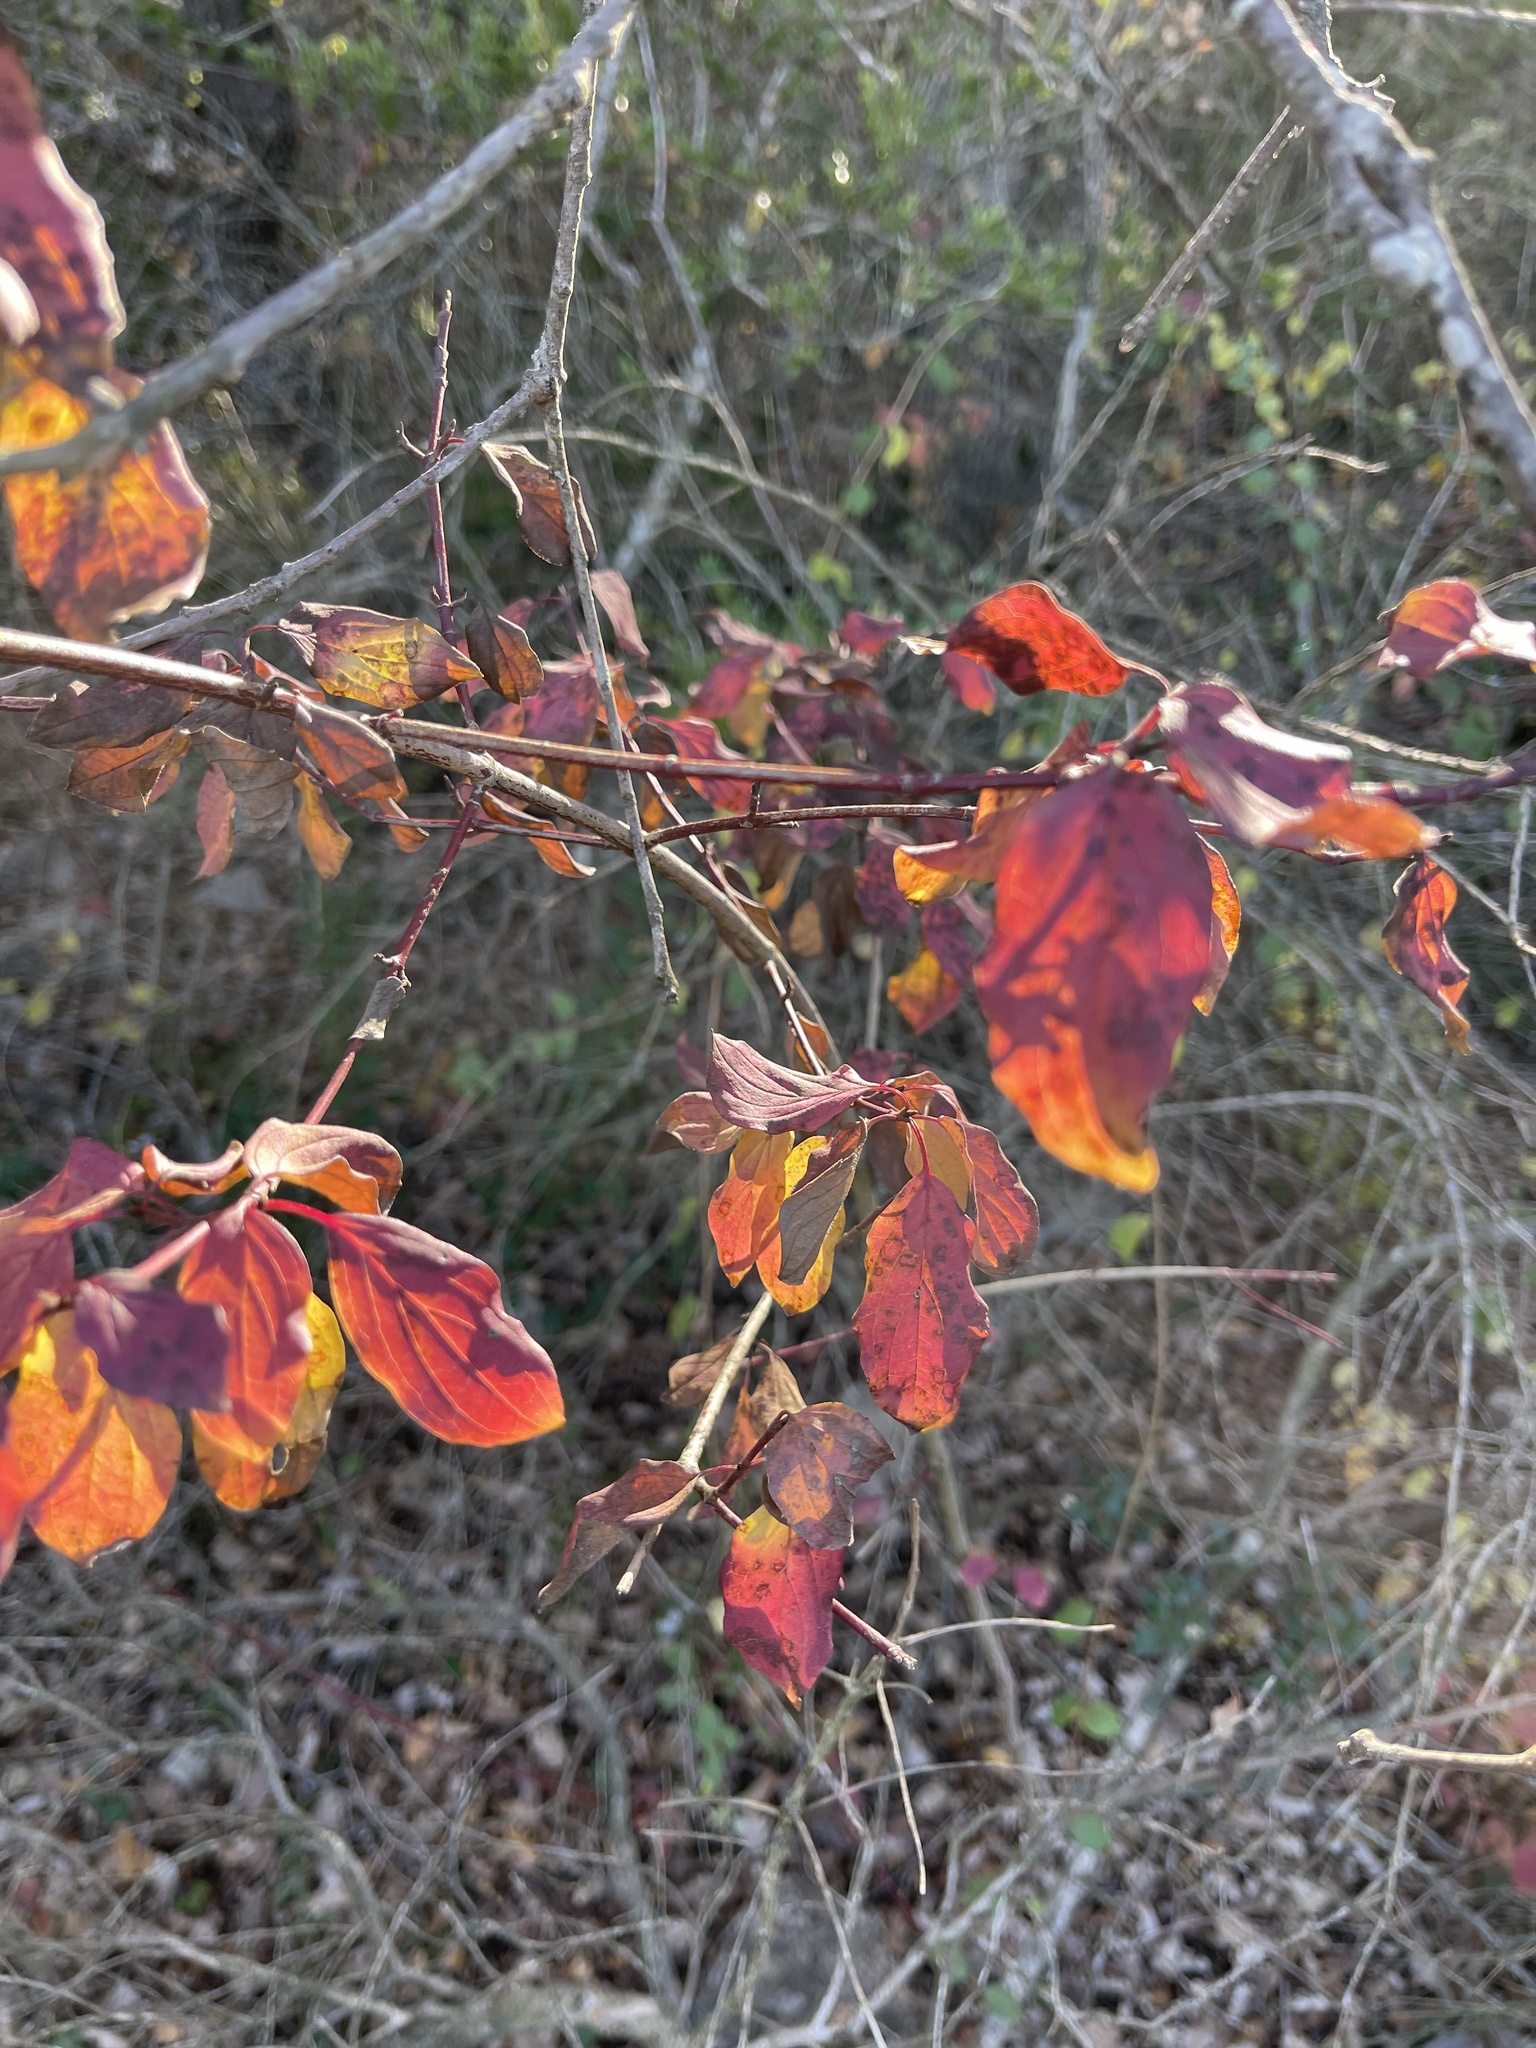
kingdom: Plantae
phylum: Tracheophyta
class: Magnoliopsida
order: Cornales
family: Cornaceae
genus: Cornus
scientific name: Cornus sanguinea
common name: Dogwood
